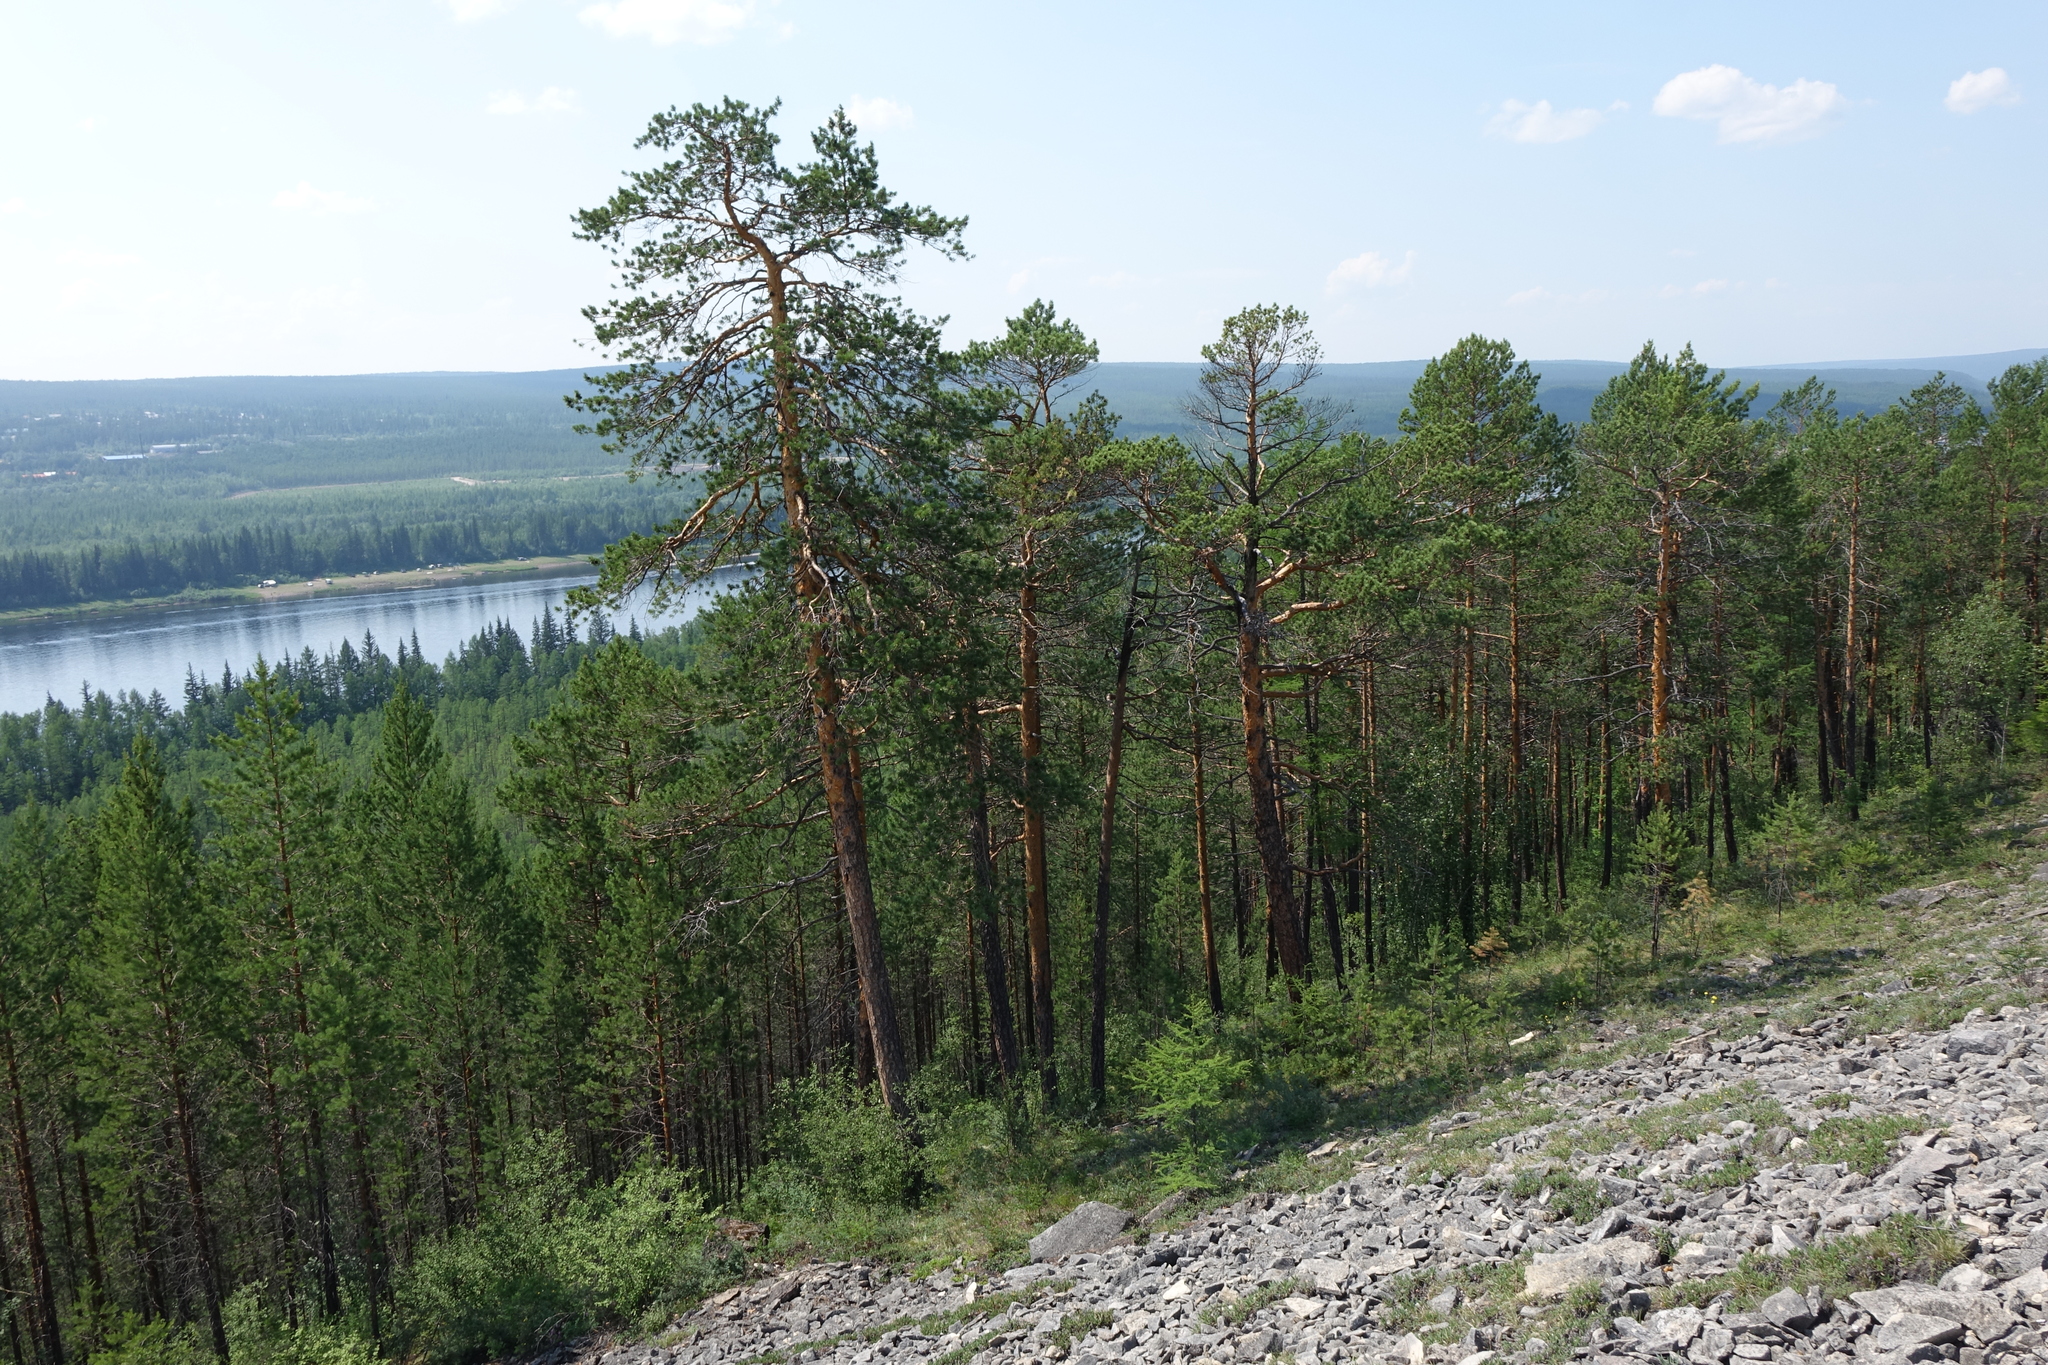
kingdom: Plantae
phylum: Tracheophyta
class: Pinopsida
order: Pinales
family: Pinaceae
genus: Pinus
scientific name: Pinus sylvestris
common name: Scots pine
